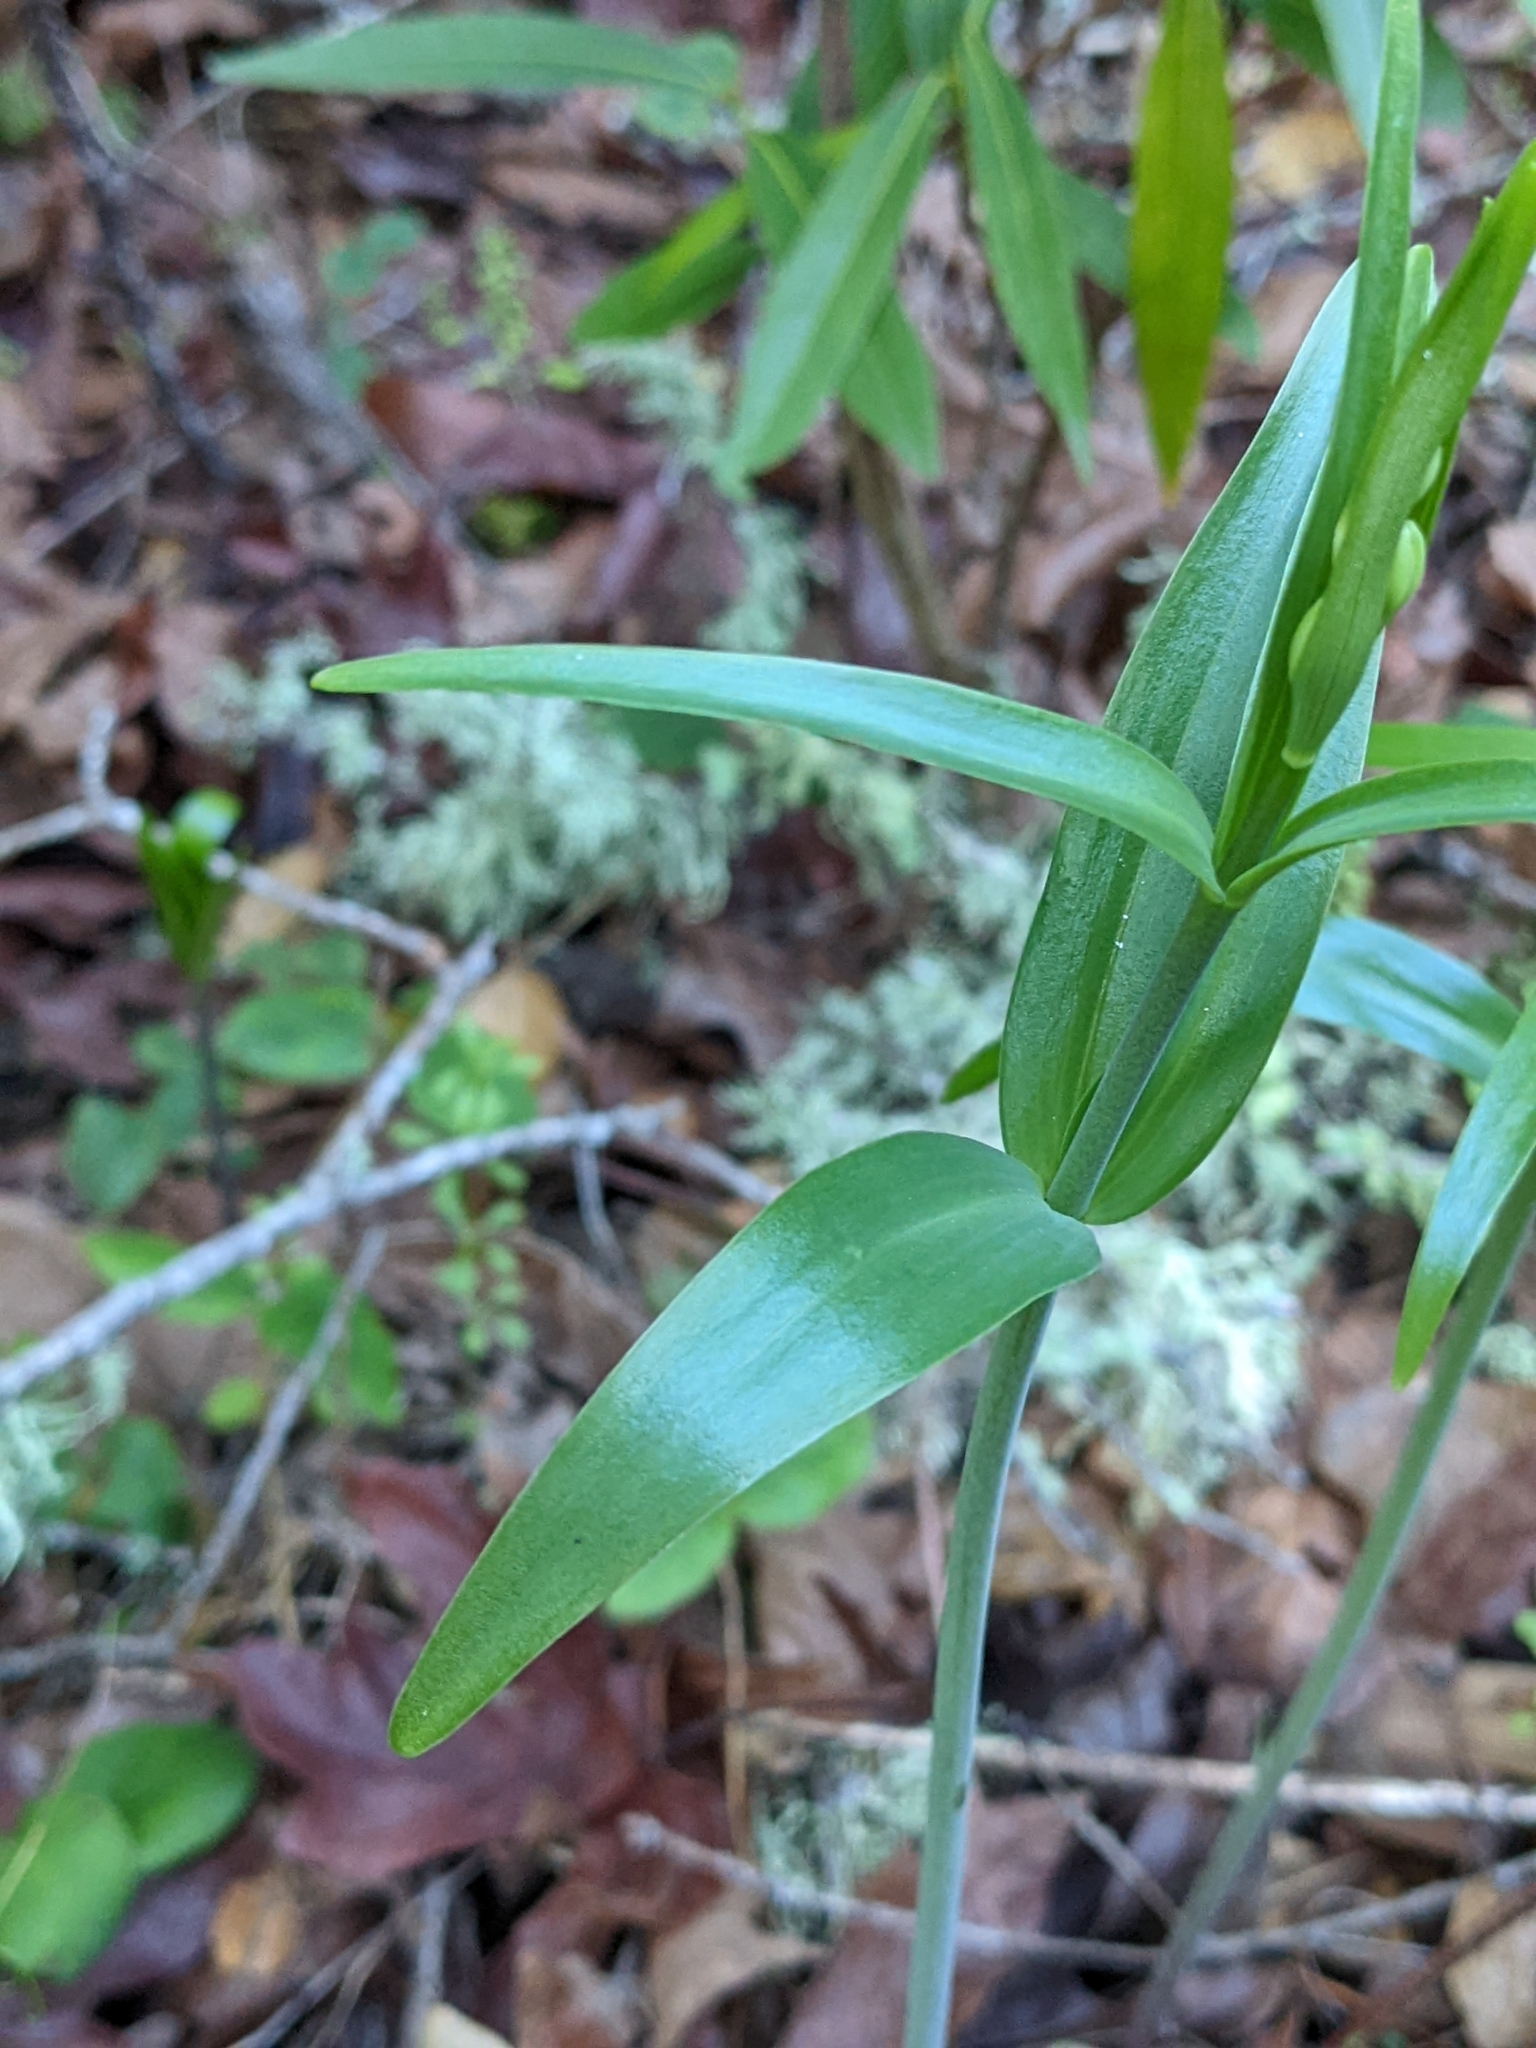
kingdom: Plantae
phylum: Tracheophyta
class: Liliopsida
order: Liliales
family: Liliaceae
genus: Fritillaria
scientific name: Fritillaria affinis
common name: Ojai fritillary
